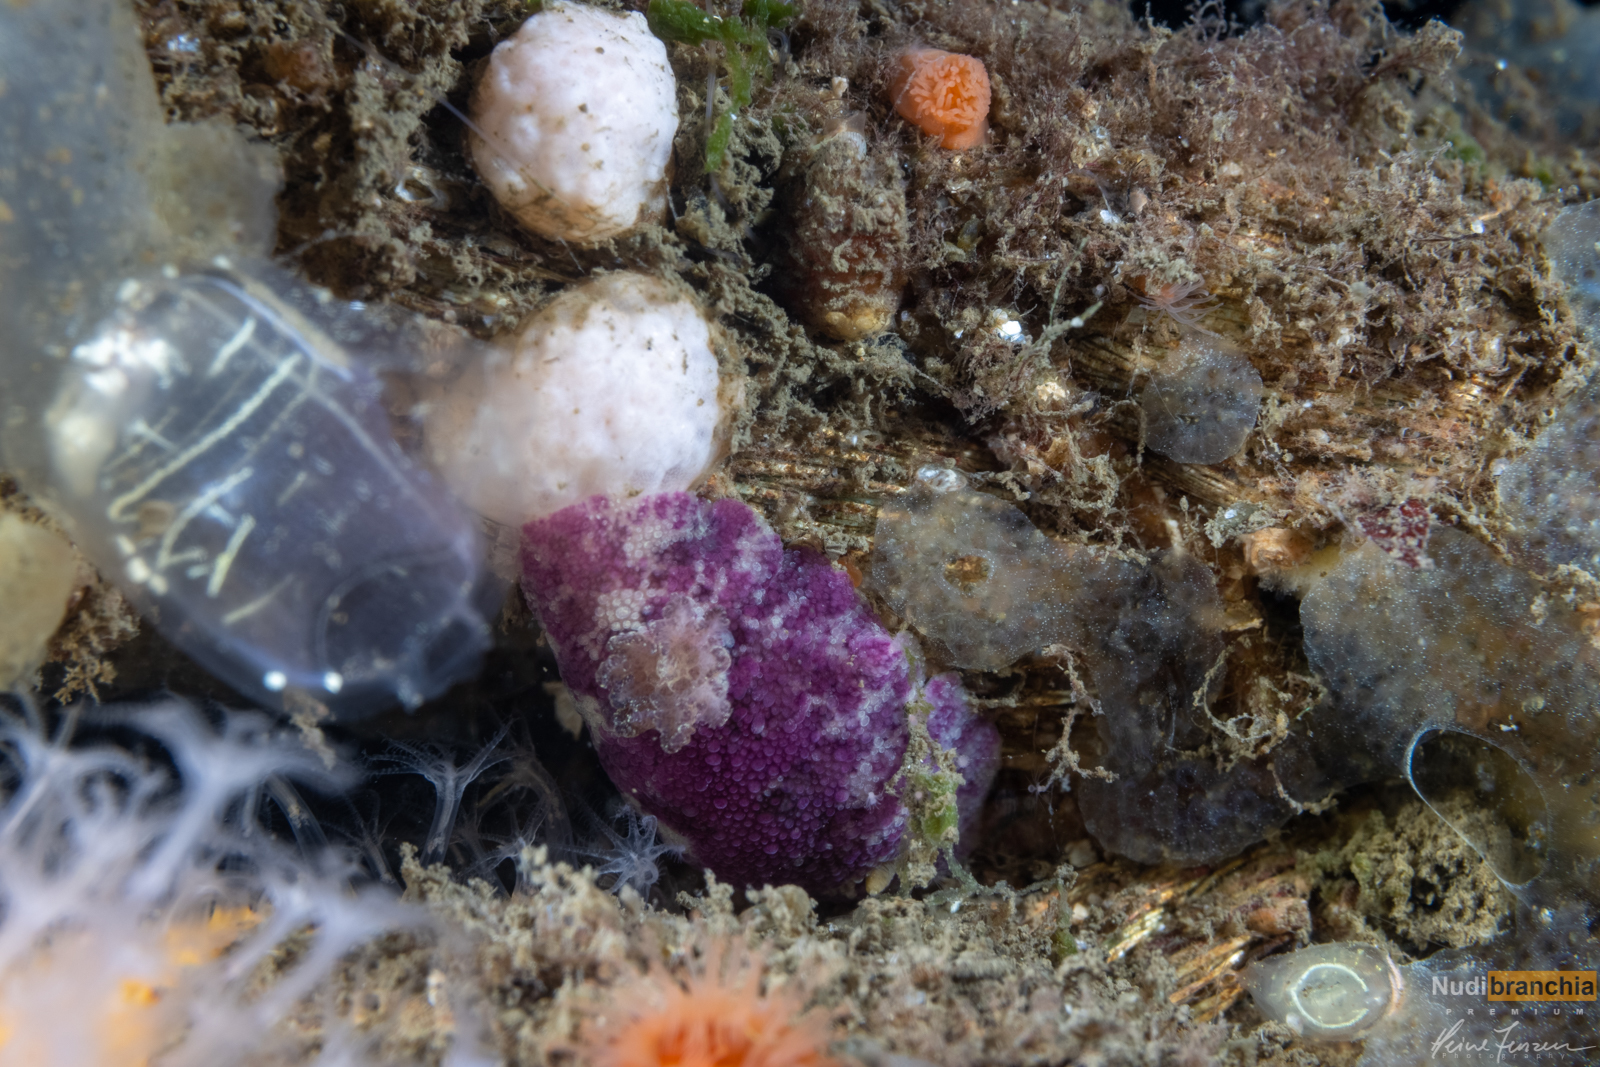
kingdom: Animalia
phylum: Mollusca
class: Gastropoda
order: Nudibranchia
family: Dorididae
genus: Doris
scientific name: Doris pseudoargus
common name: Sea lemon
